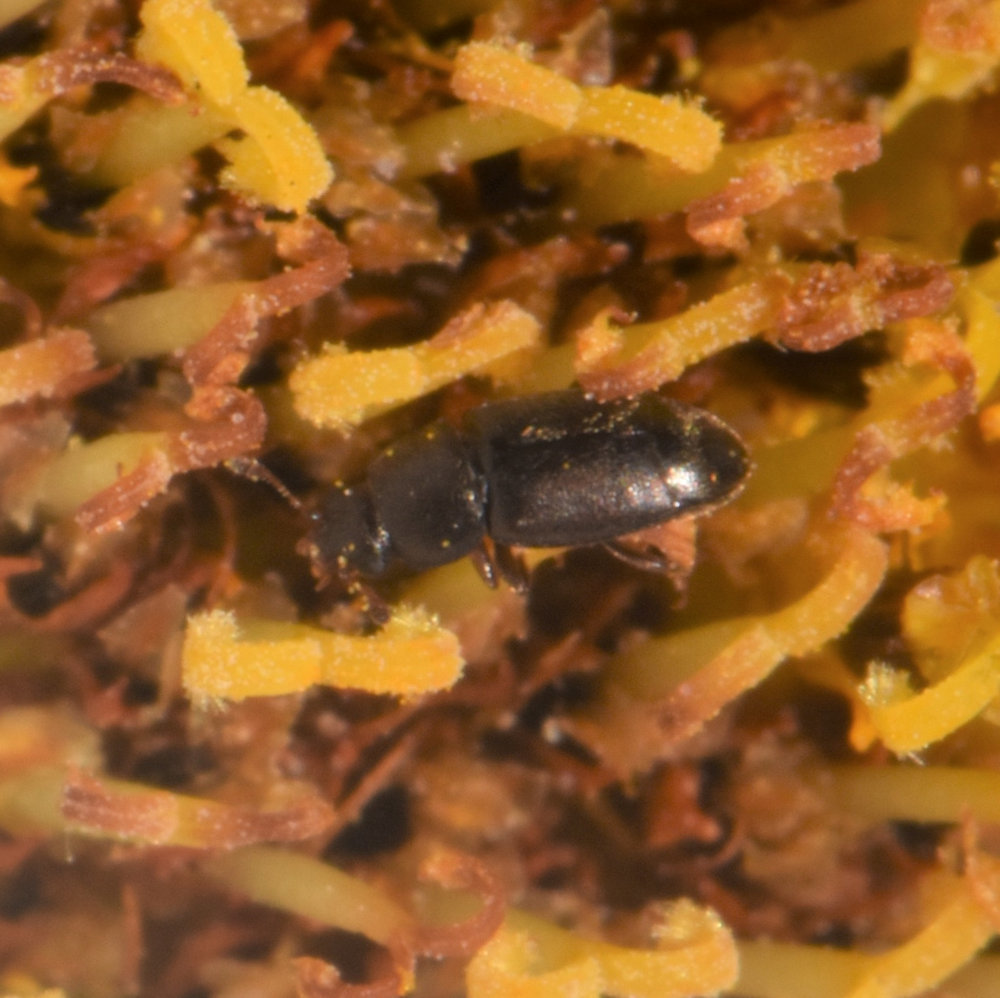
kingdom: Animalia
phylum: Arthropoda
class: Insecta
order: Coleoptera
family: Nitidulidae
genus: Carpophilus
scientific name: Carpophilus brachypterus
